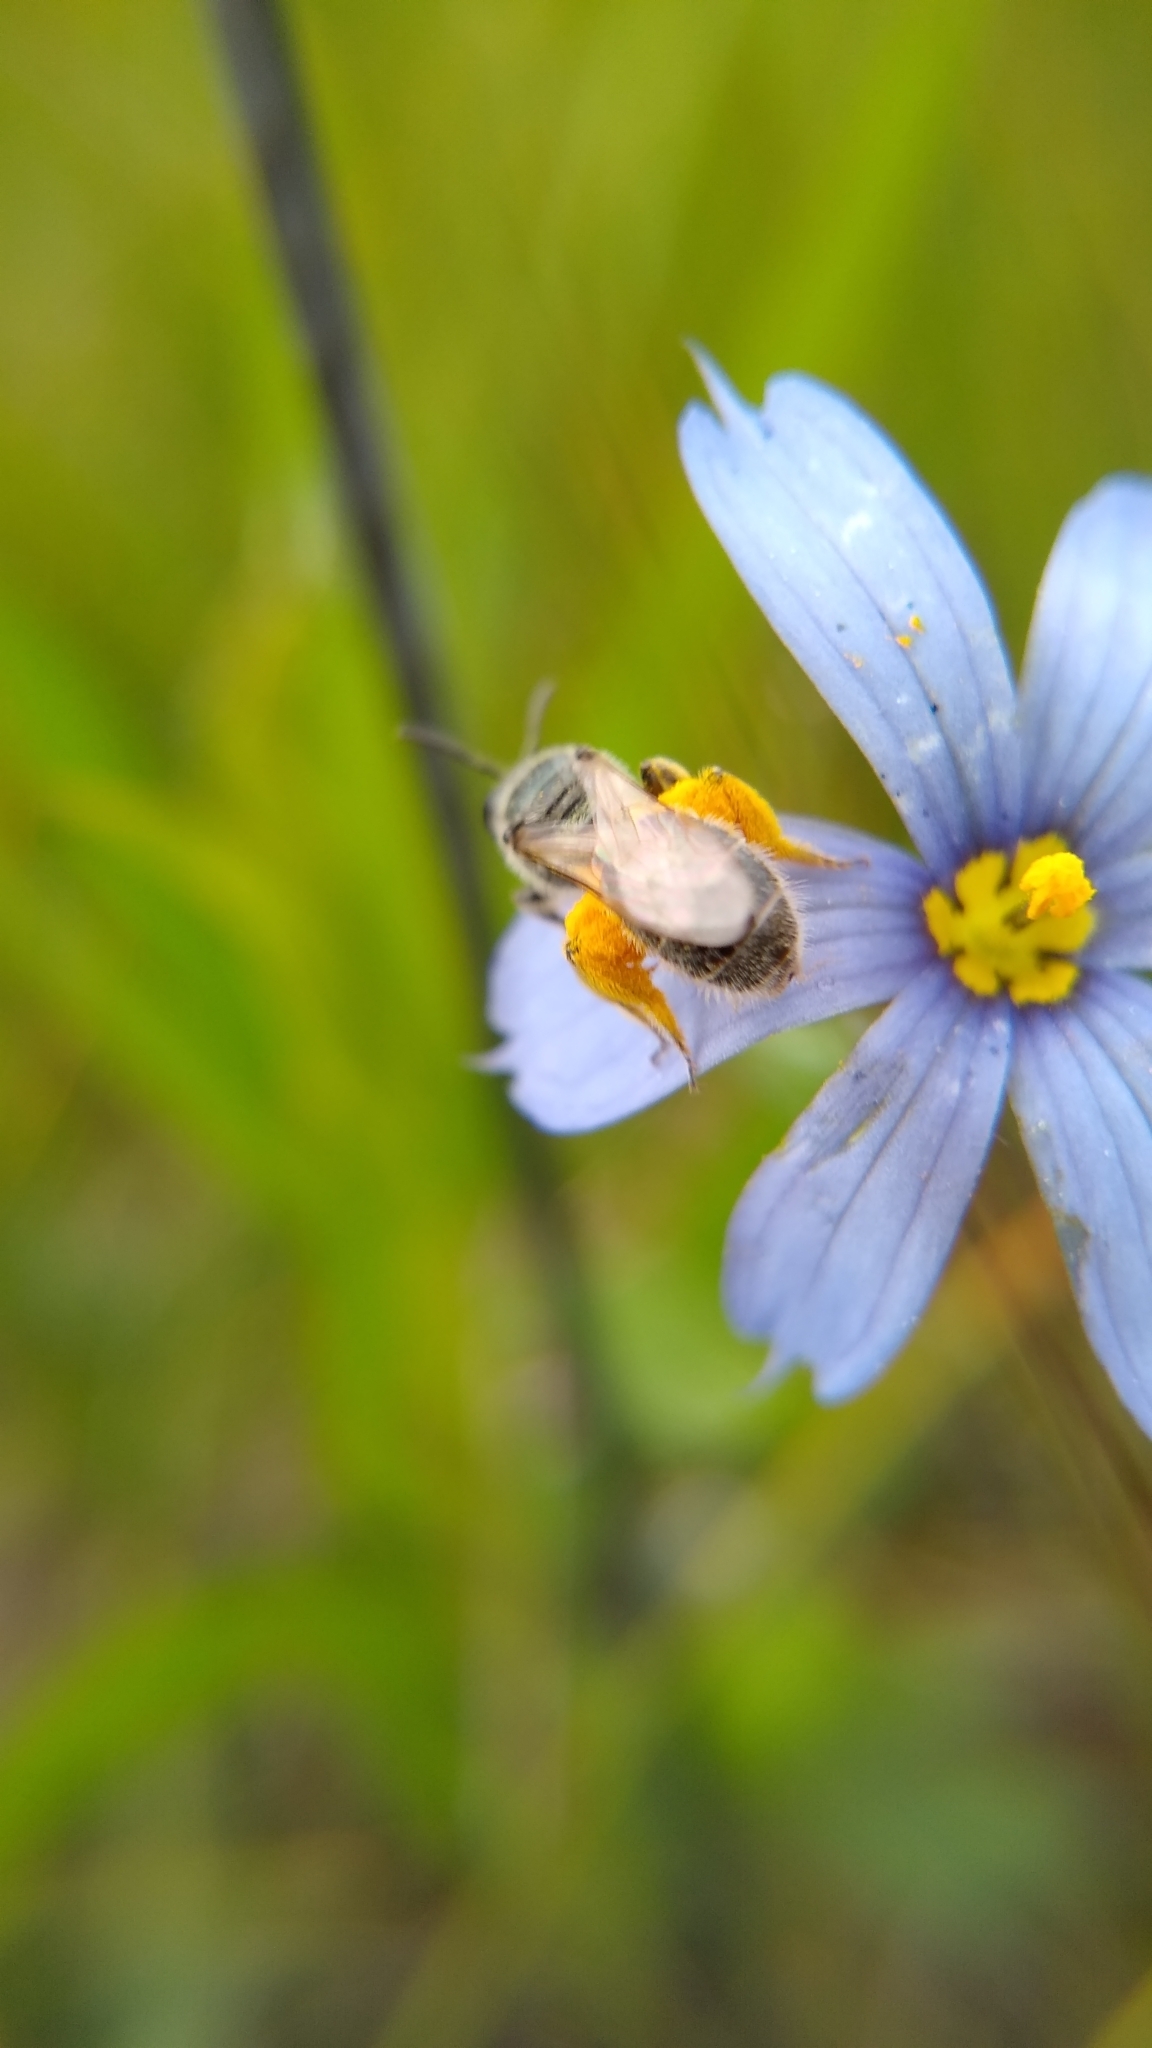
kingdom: Animalia
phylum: Arthropoda
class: Insecta
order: Hymenoptera
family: Halictidae
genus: Dialictus
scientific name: Dialictus
